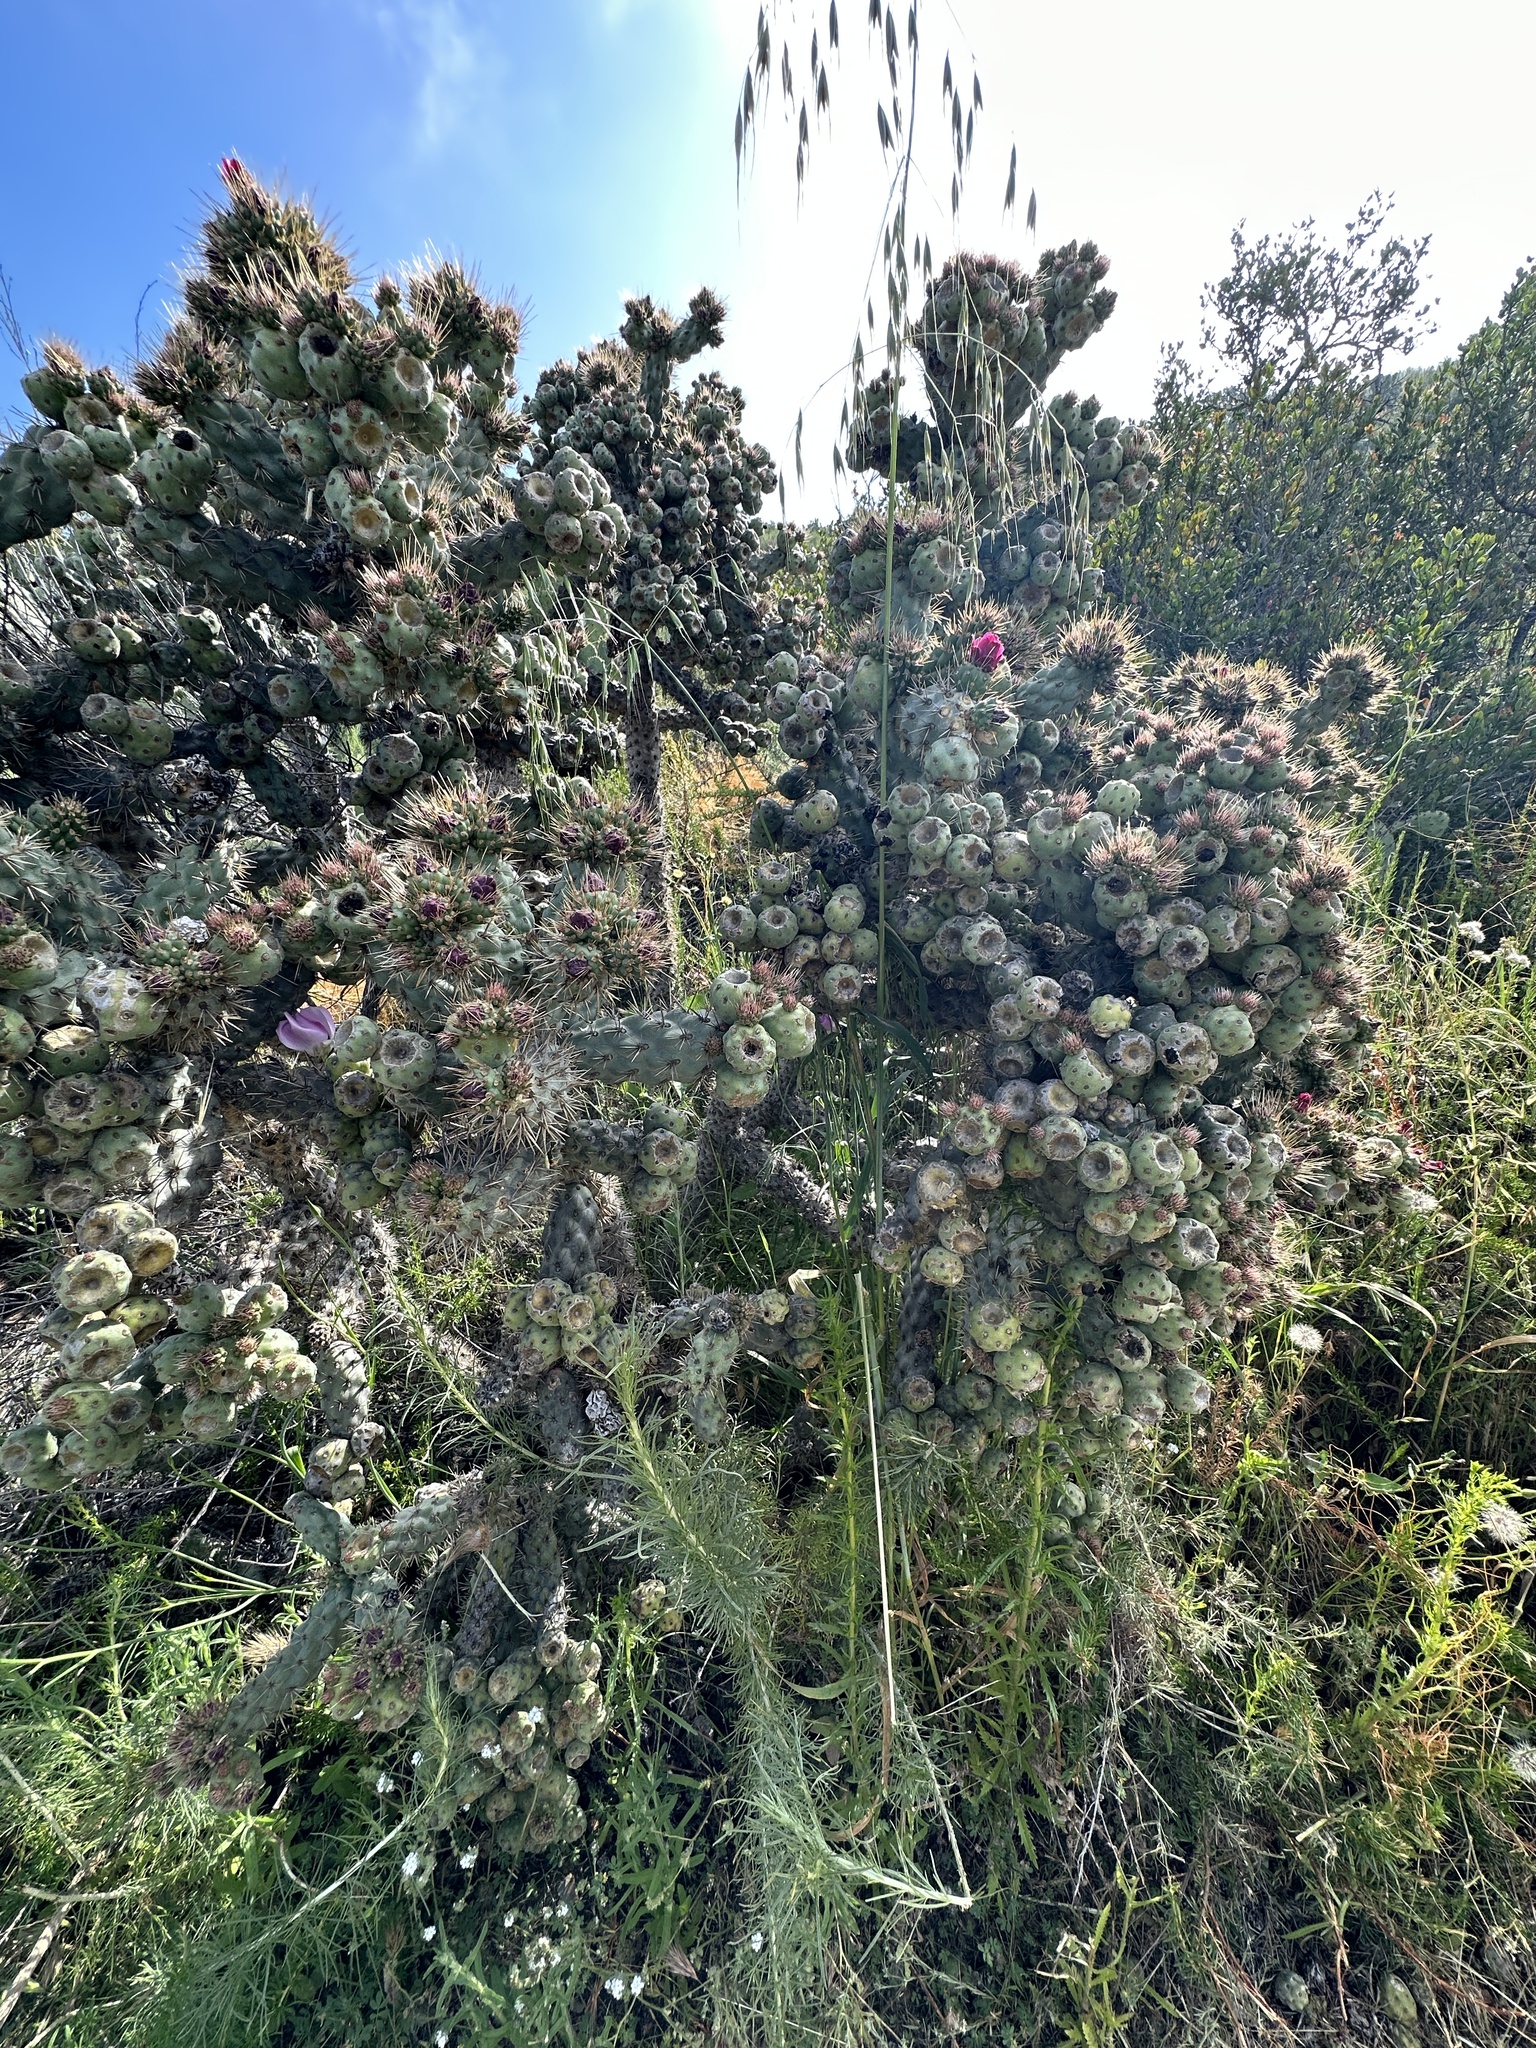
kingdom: Plantae
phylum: Tracheophyta
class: Magnoliopsida
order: Caryophyllales
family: Cactaceae
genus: Cylindropuntia
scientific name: Cylindropuntia prolifera
